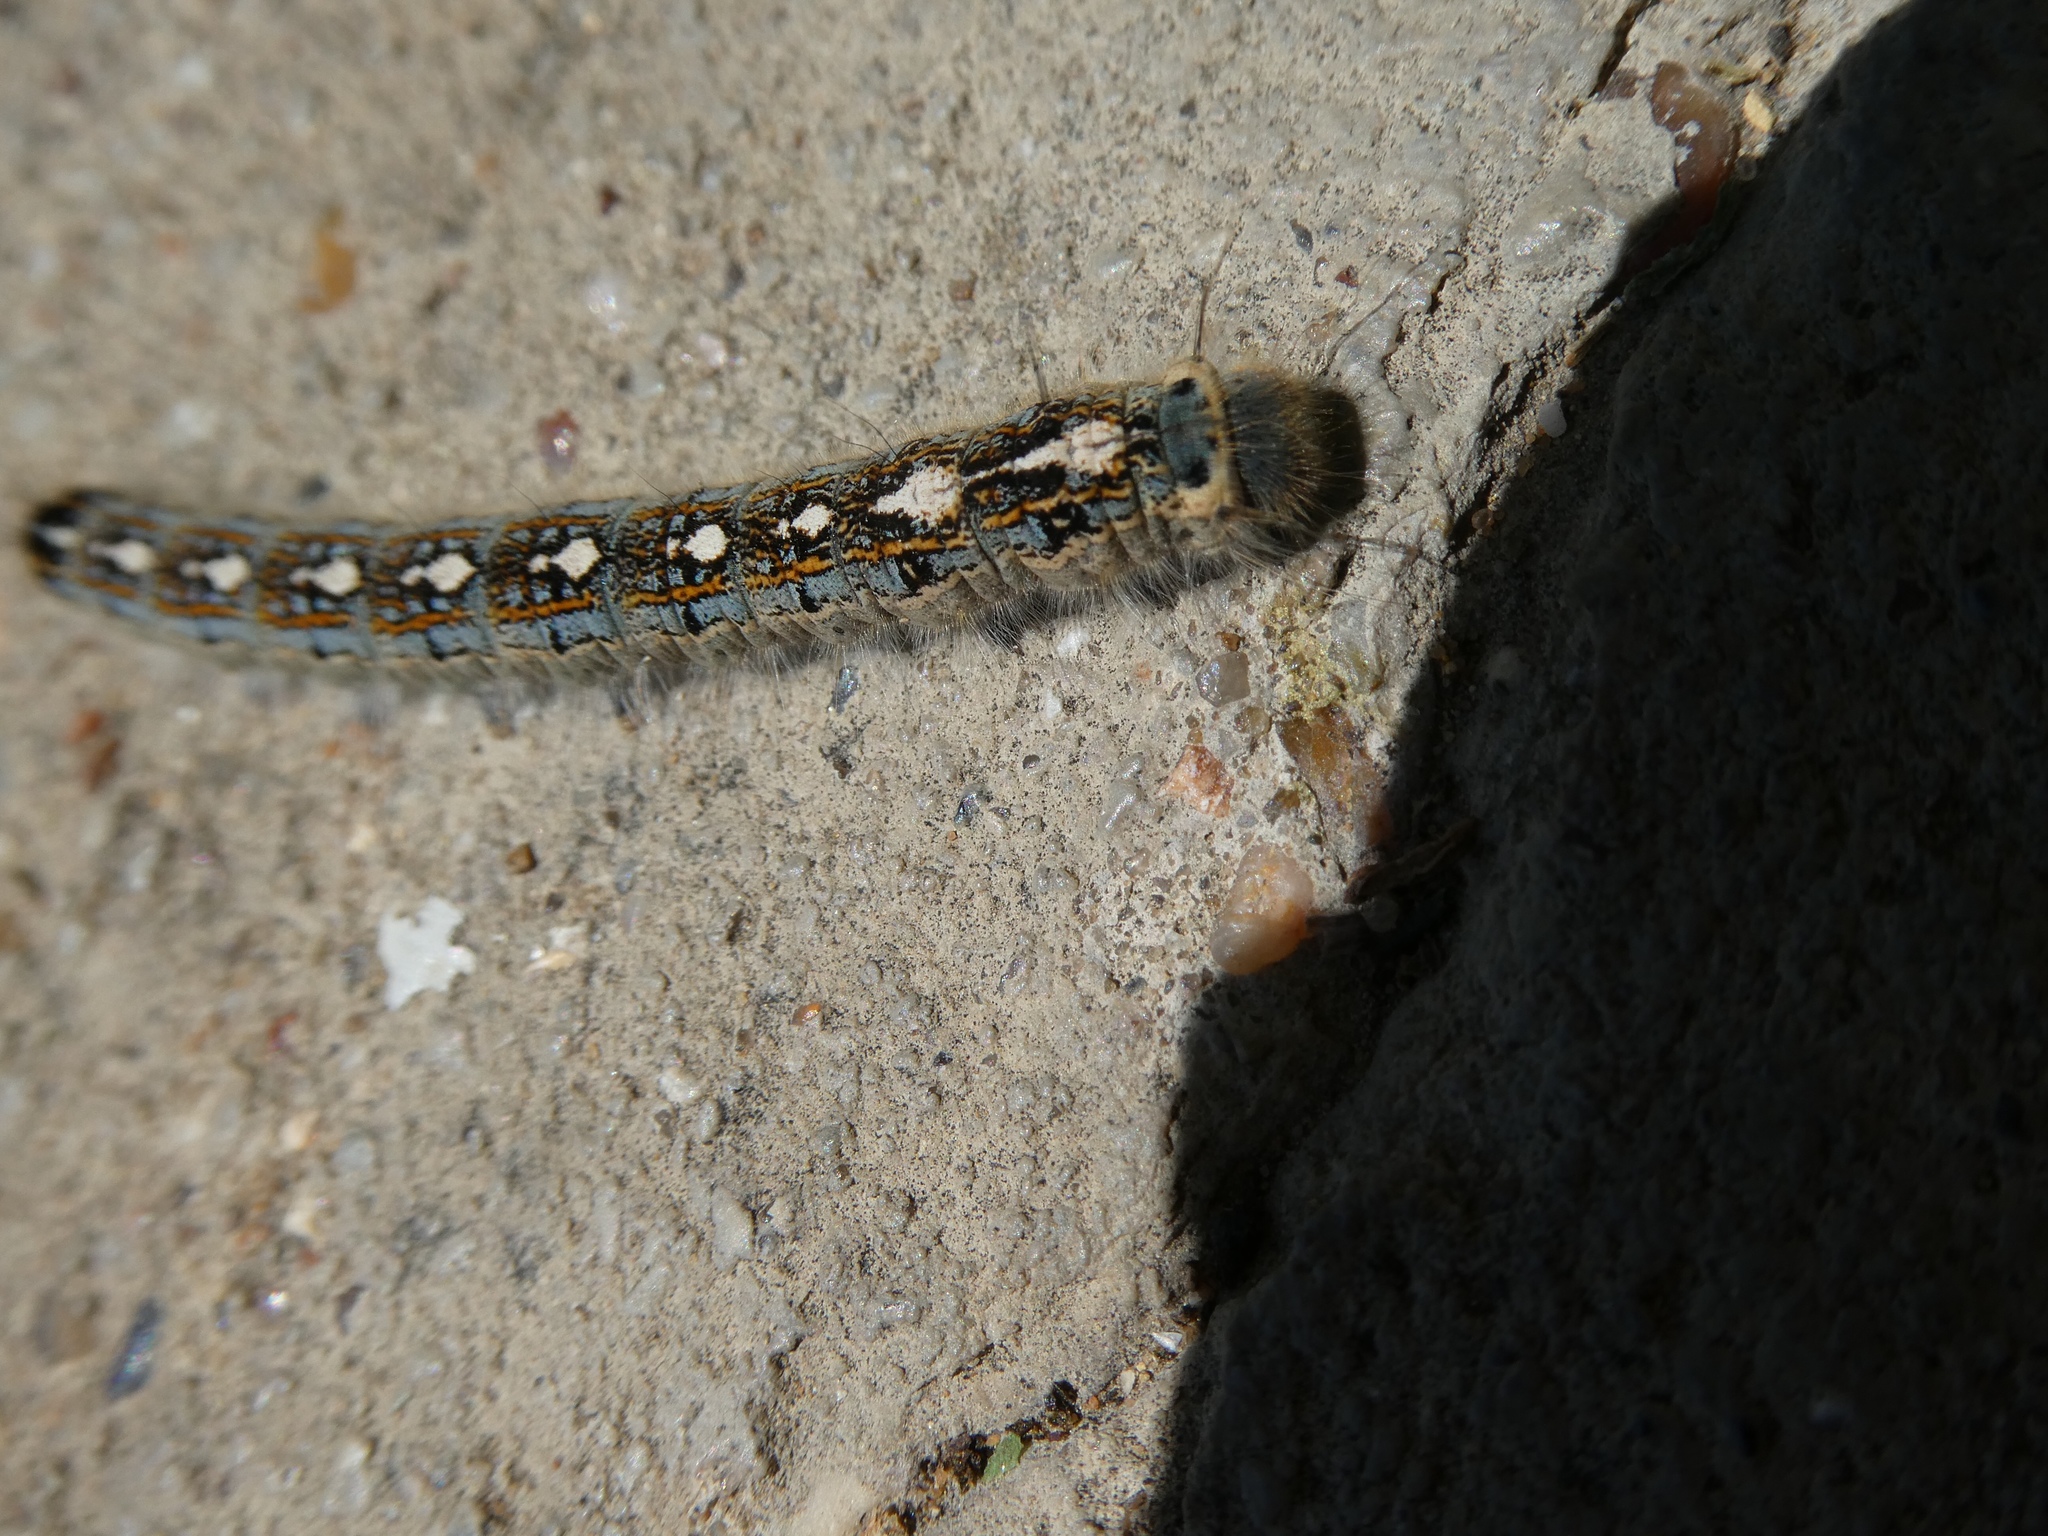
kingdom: Animalia
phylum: Arthropoda
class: Insecta
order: Lepidoptera
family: Lasiocampidae
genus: Malacosoma
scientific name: Malacosoma disstria
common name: Forest tent caterpillar
